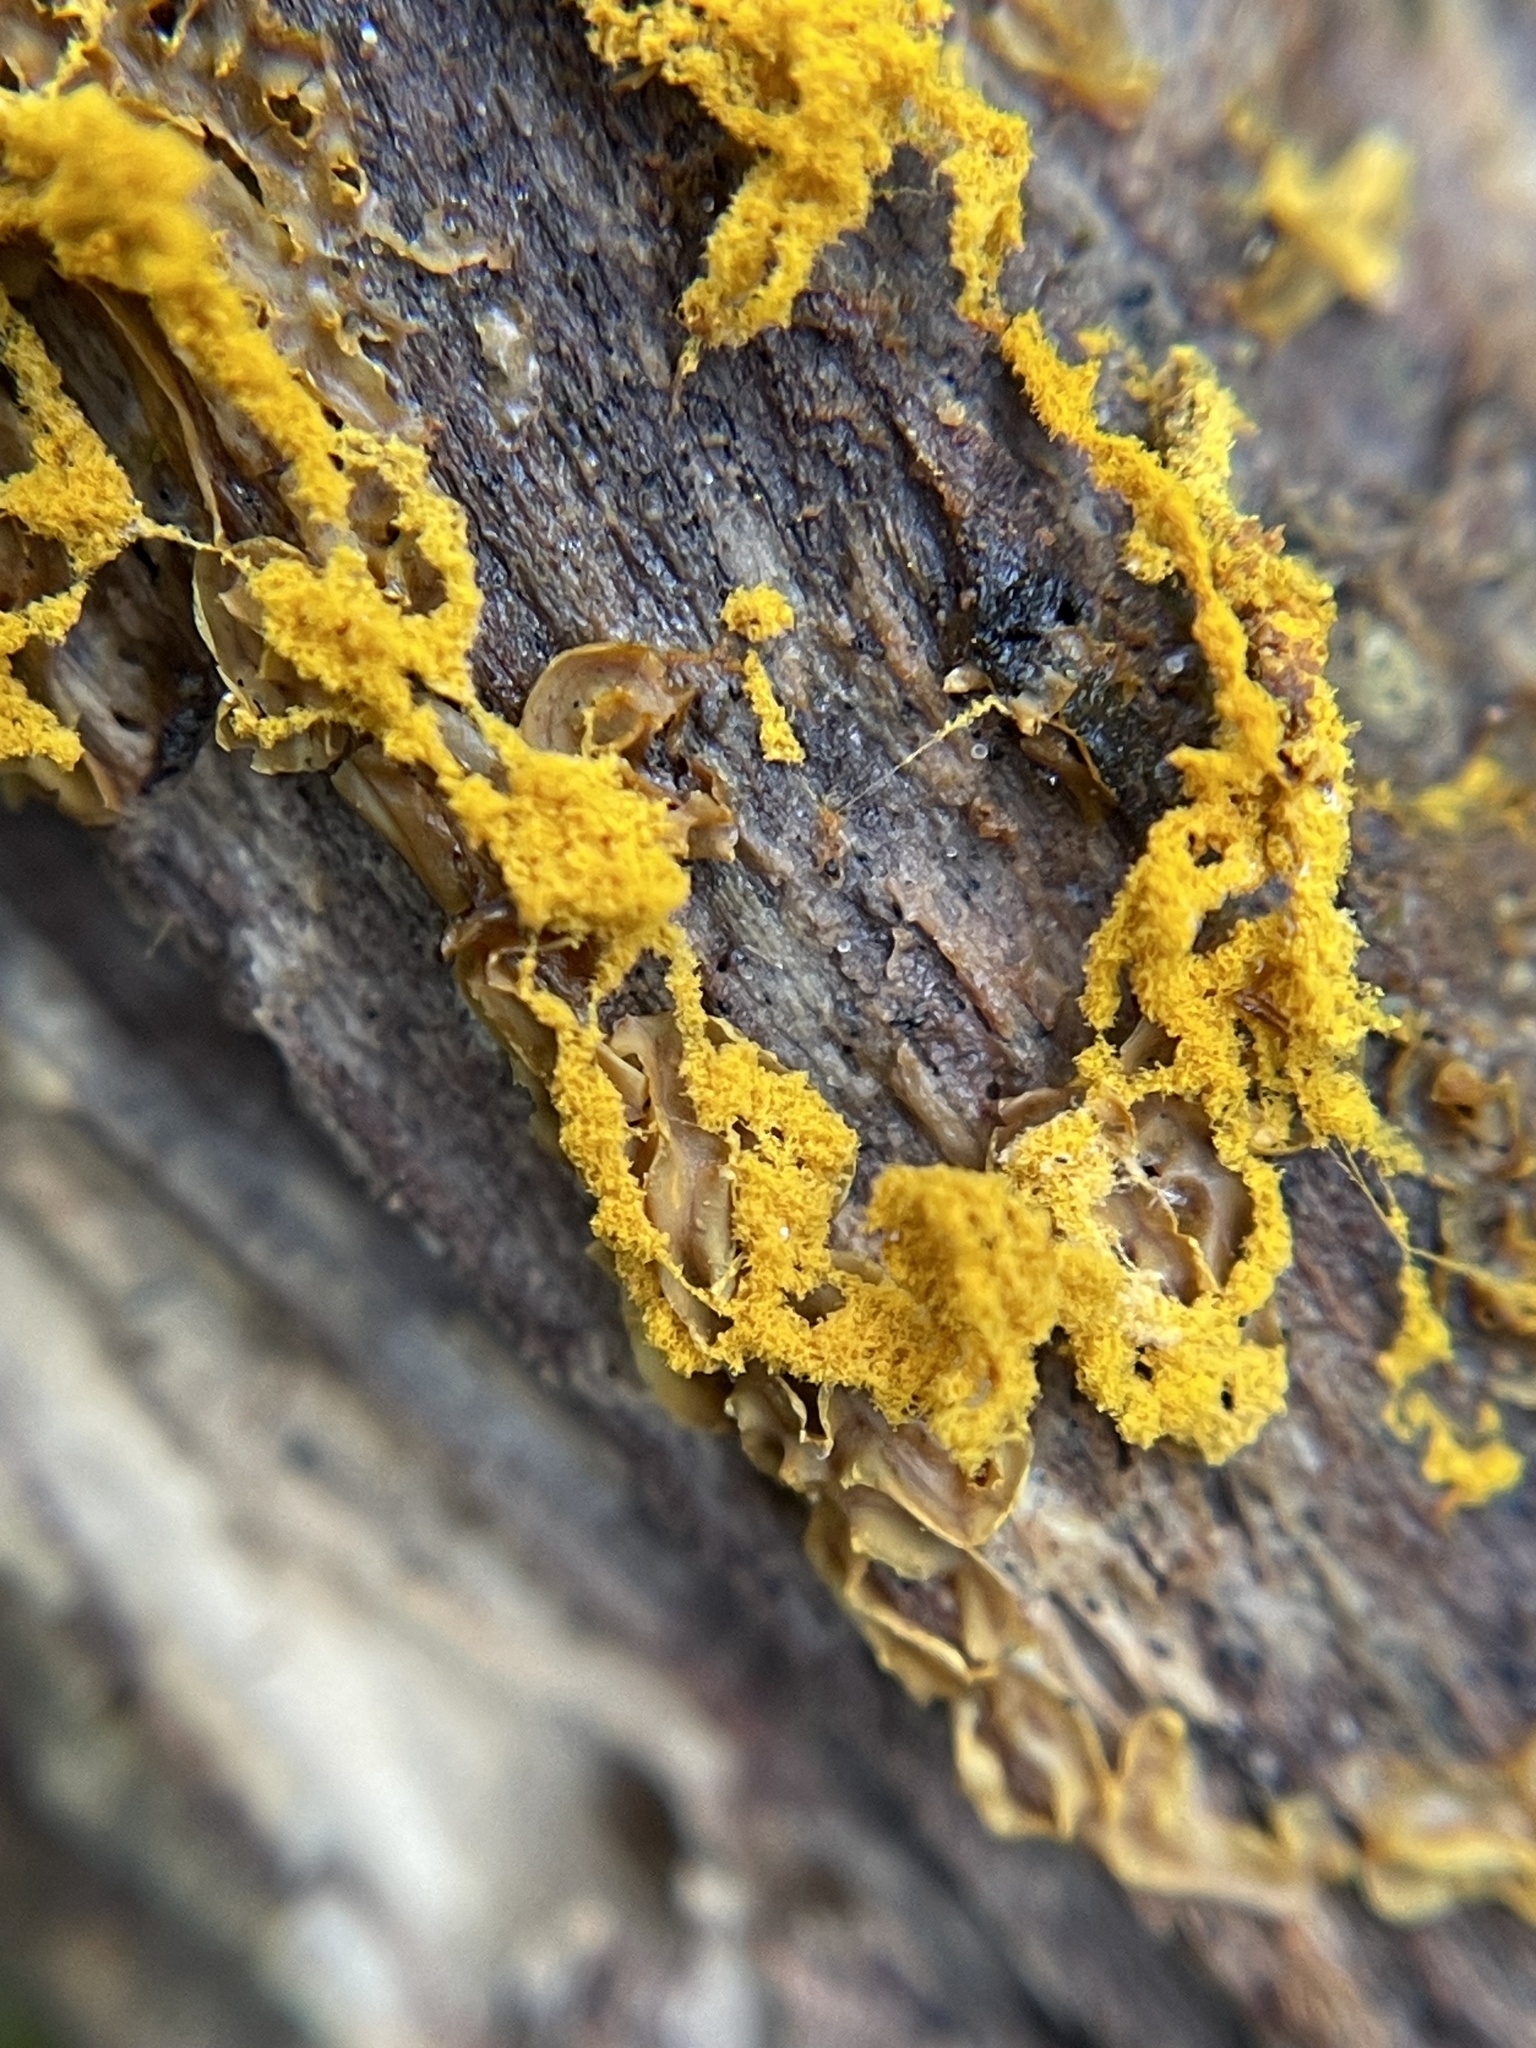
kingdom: Protozoa
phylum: Mycetozoa
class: Myxomycetes
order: Trichiales
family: Arcyriaceae
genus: Hemitrichia
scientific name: Hemitrichia serpula
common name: Pretzel slime mold
